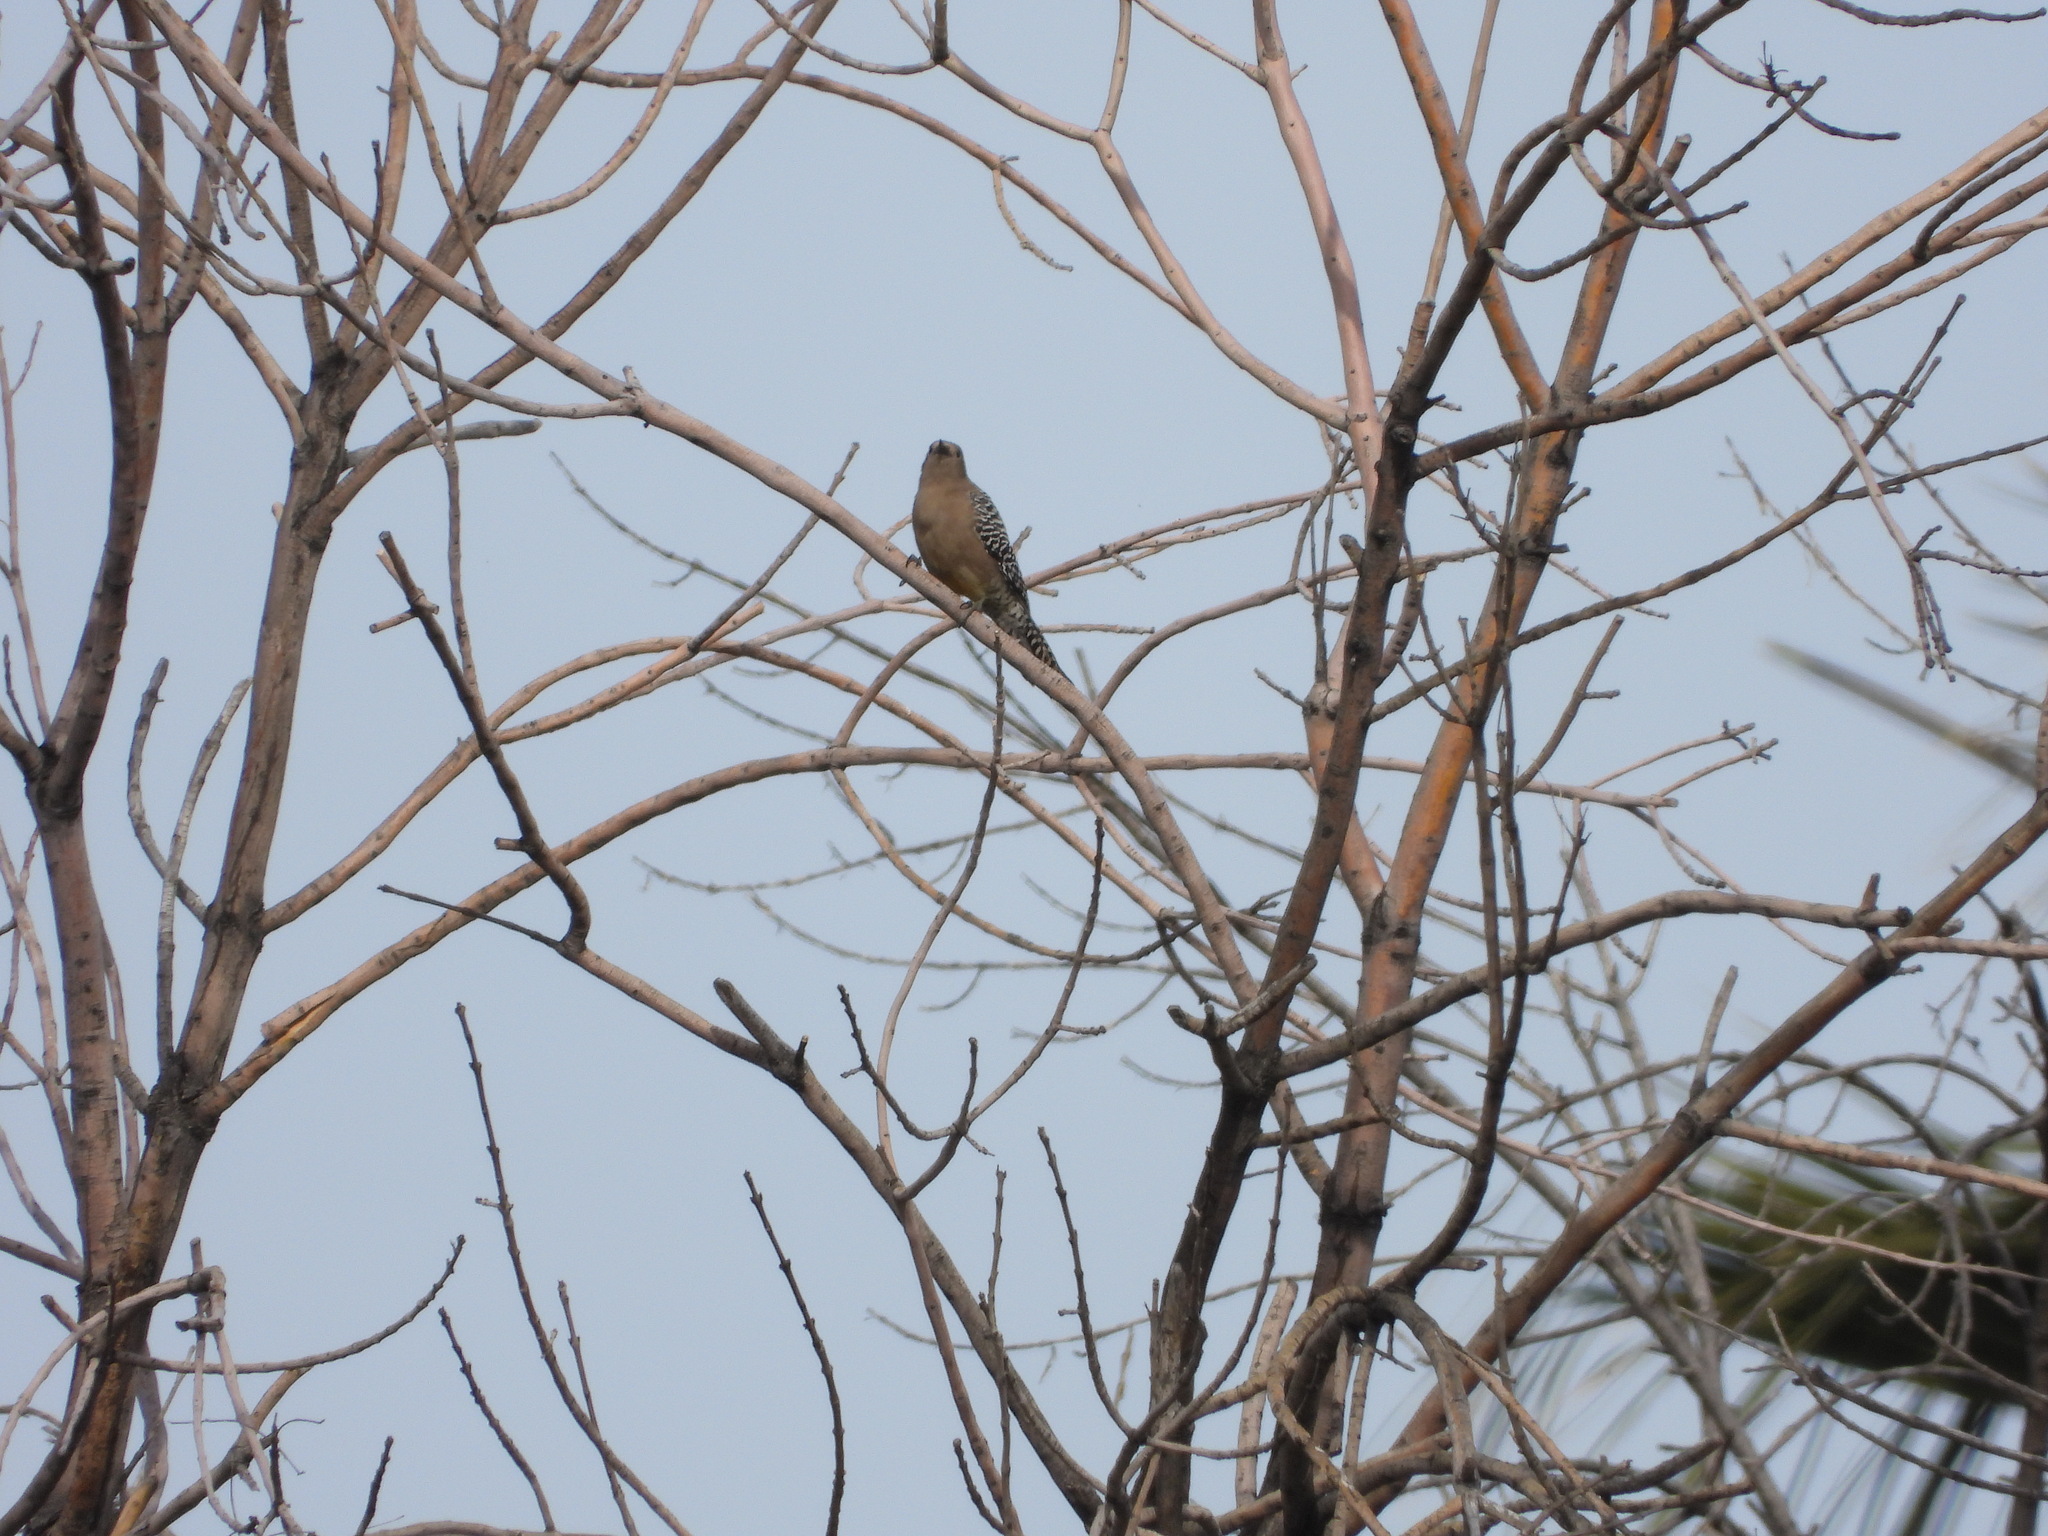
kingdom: Animalia
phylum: Chordata
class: Aves
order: Piciformes
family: Picidae
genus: Melanerpes
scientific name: Melanerpes uropygialis
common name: Gila woodpecker
